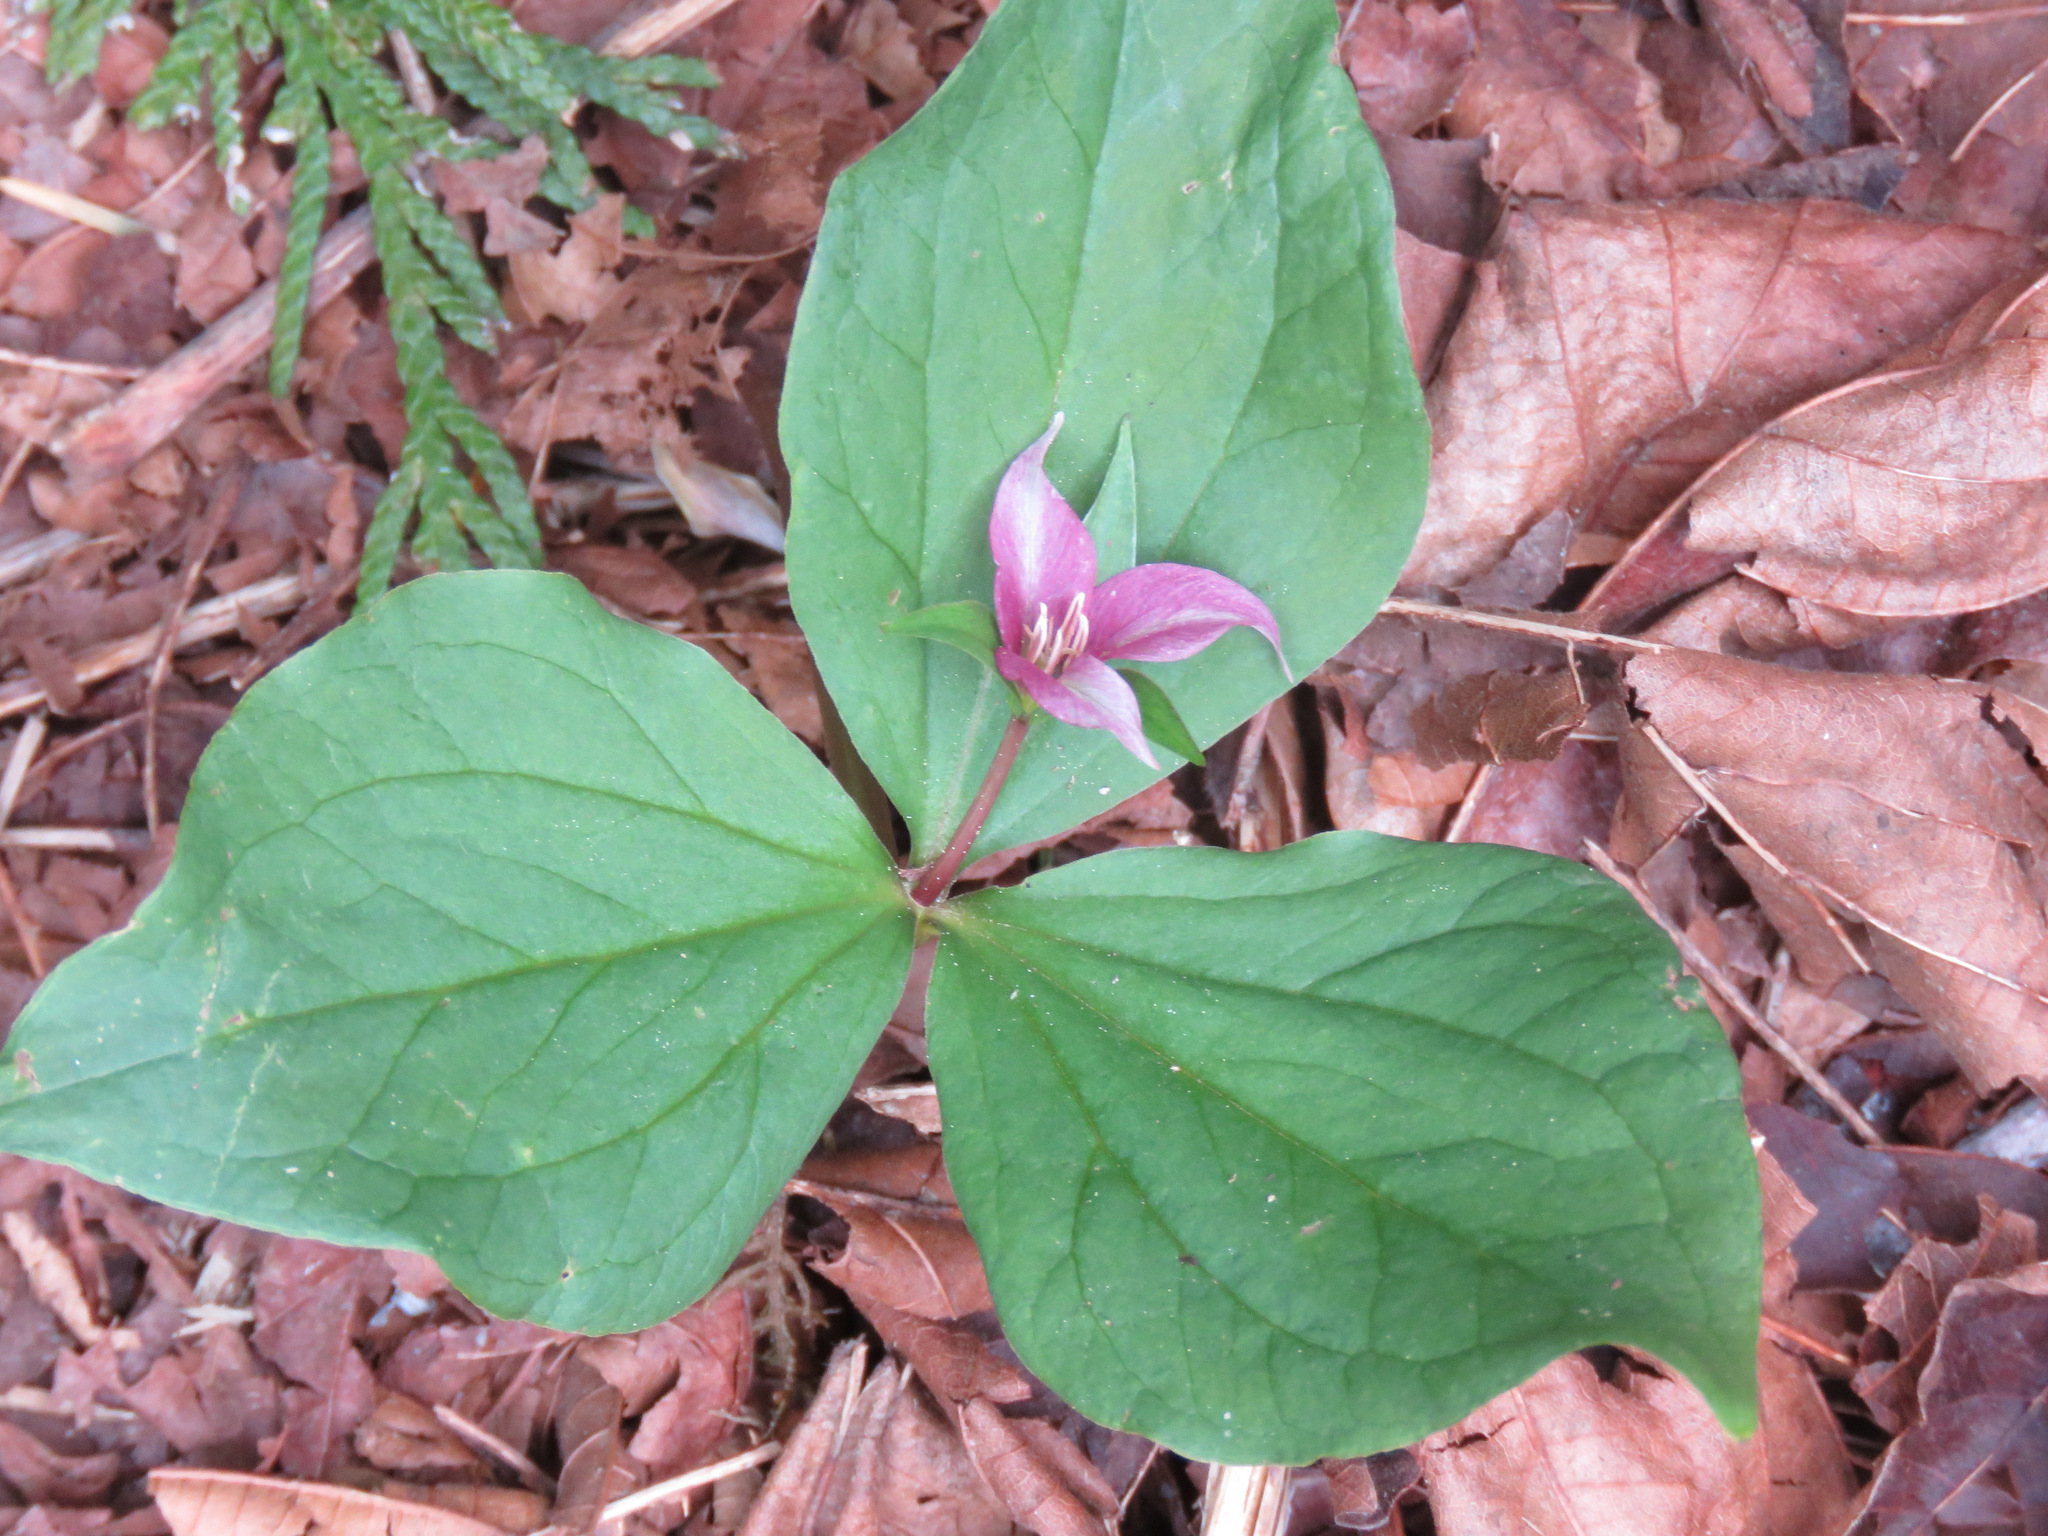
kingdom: Plantae
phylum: Tracheophyta
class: Liliopsida
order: Liliales
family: Melanthiaceae
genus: Trillium
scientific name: Trillium ovatum
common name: Pacific trillium
